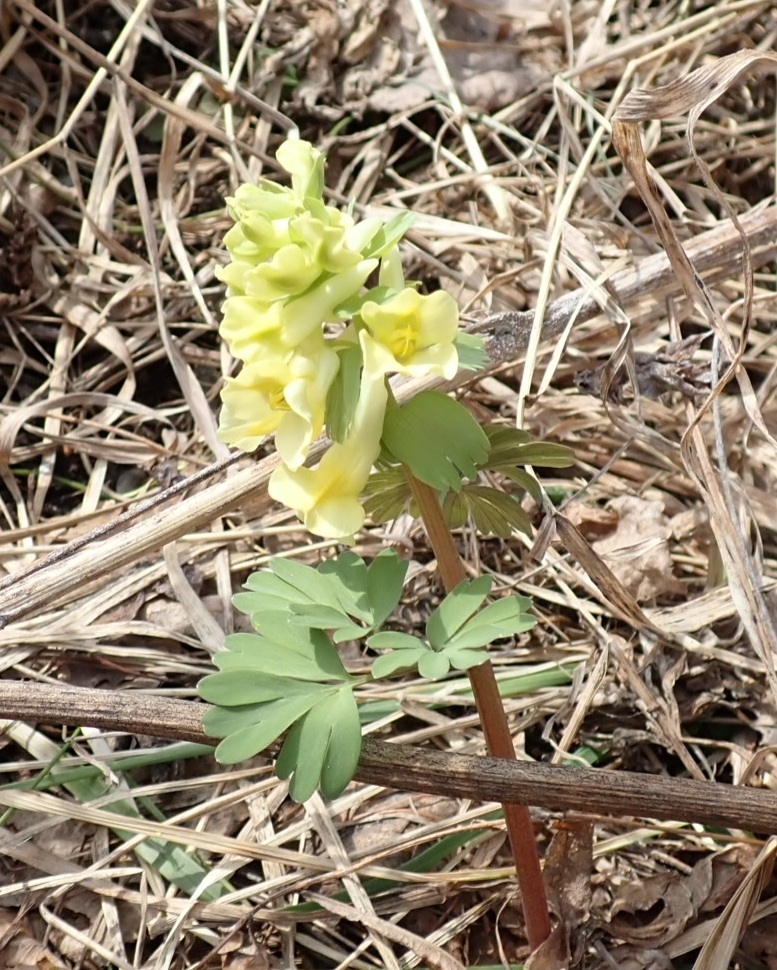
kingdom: Plantae
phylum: Tracheophyta
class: Magnoliopsida
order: Ranunculales
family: Papaveraceae
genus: Corydalis
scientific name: Corydalis bracteata
